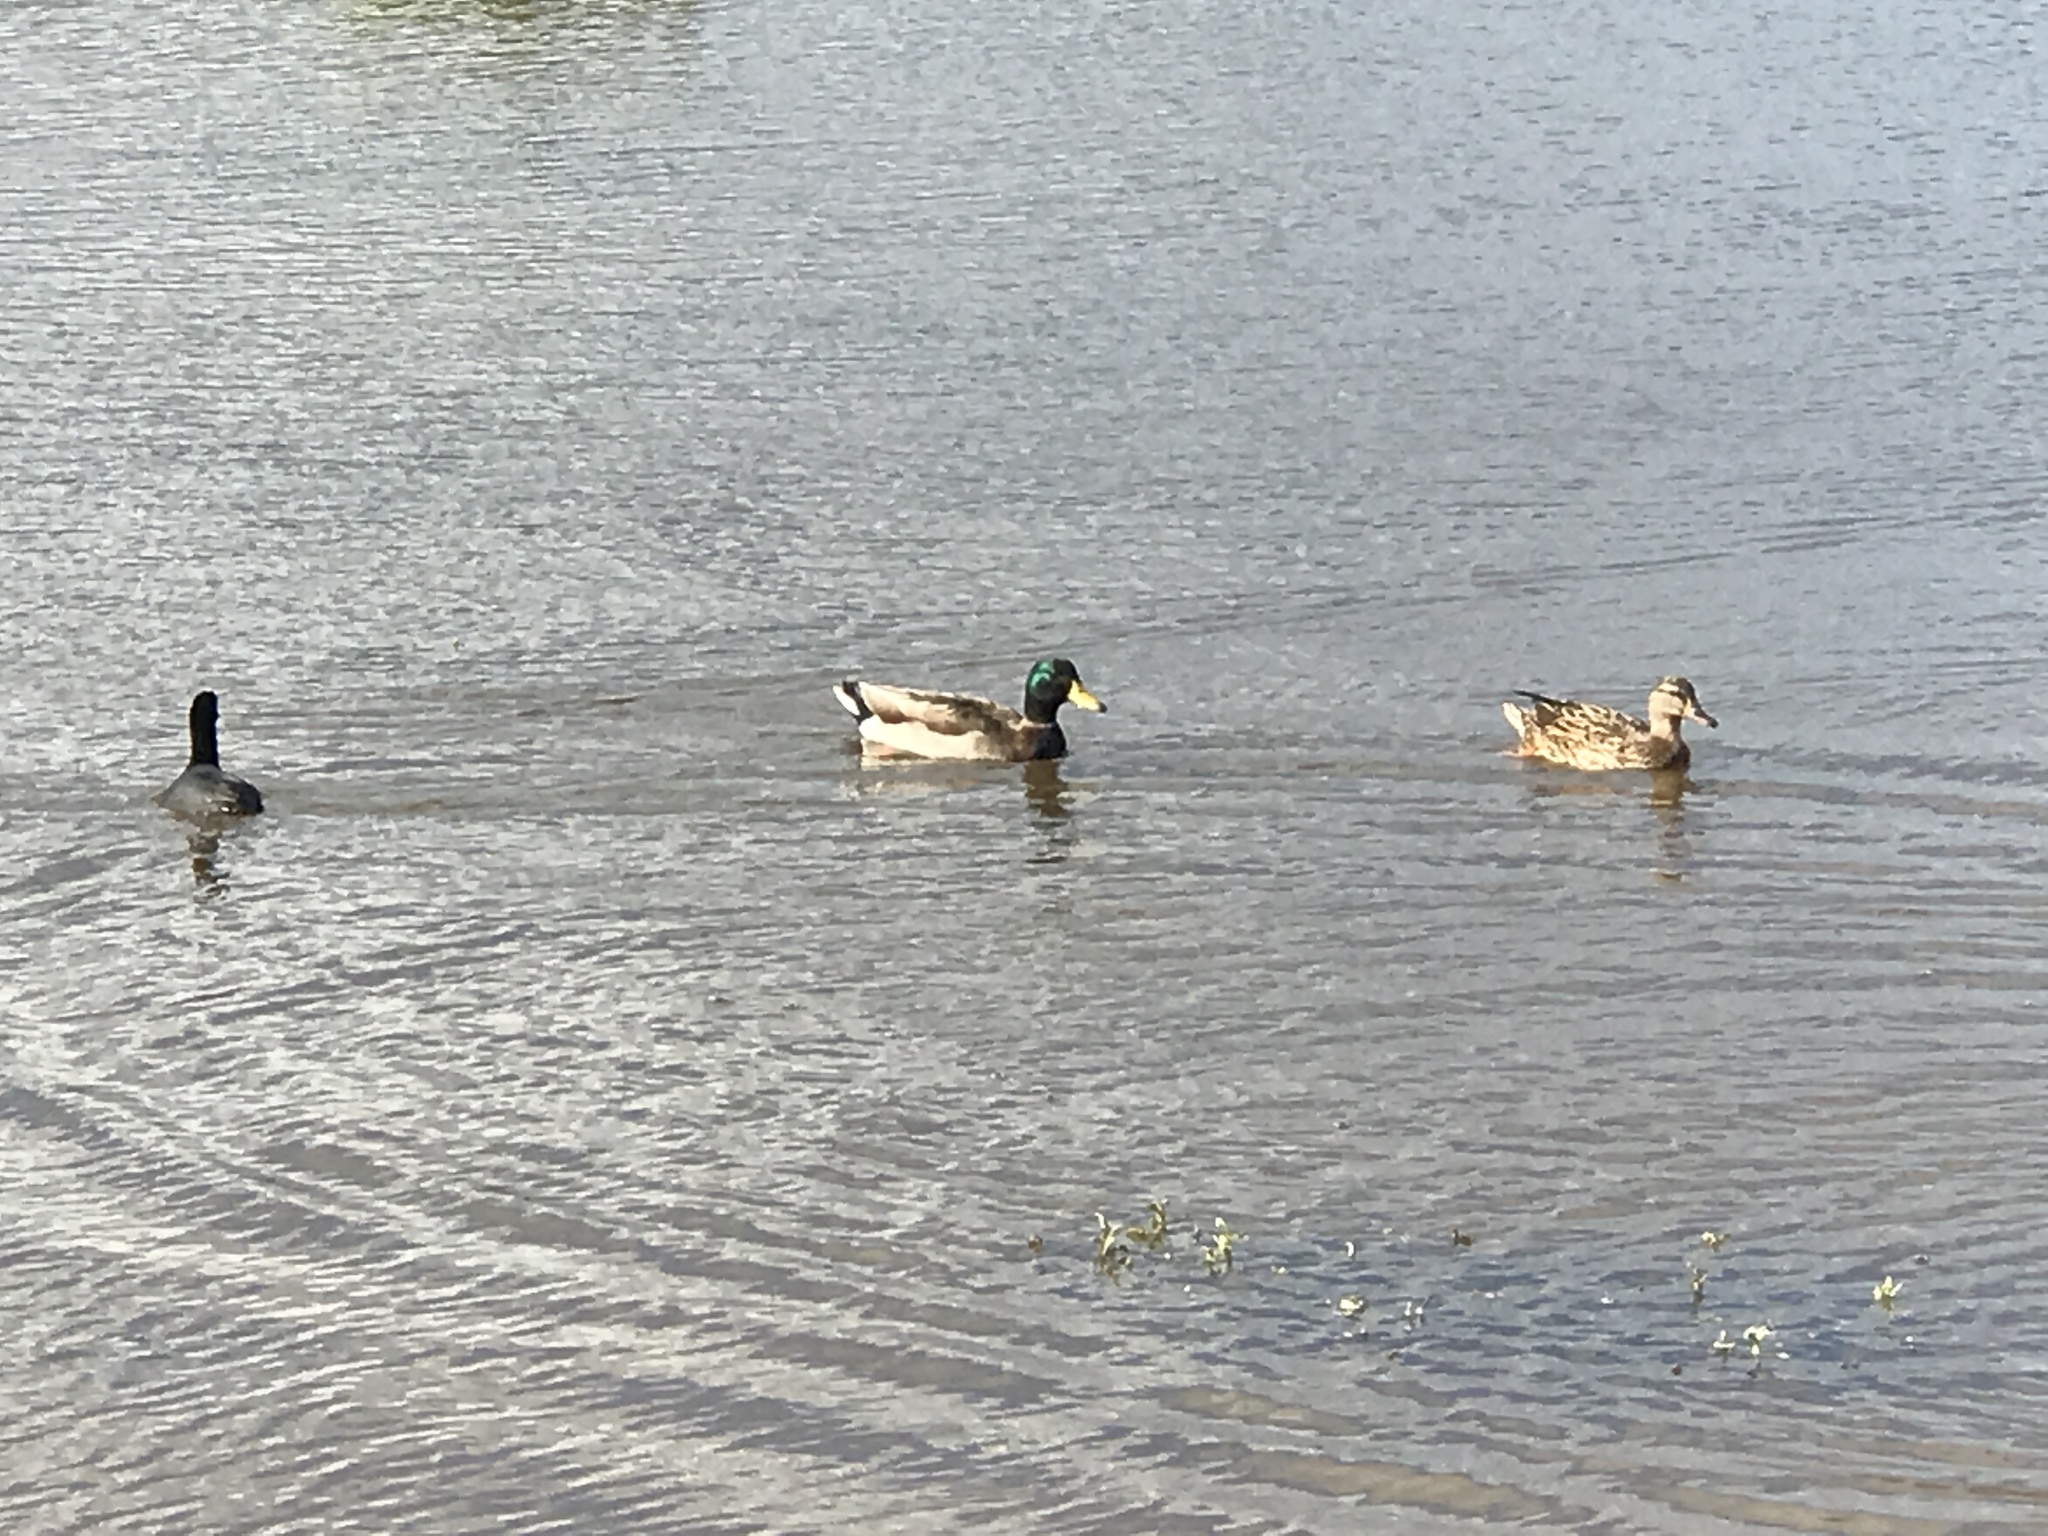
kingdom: Animalia
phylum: Chordata
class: Aves
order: Anseriformes
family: Anatidae
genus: Anas
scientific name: Anas platyrhynchos
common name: Mallard
